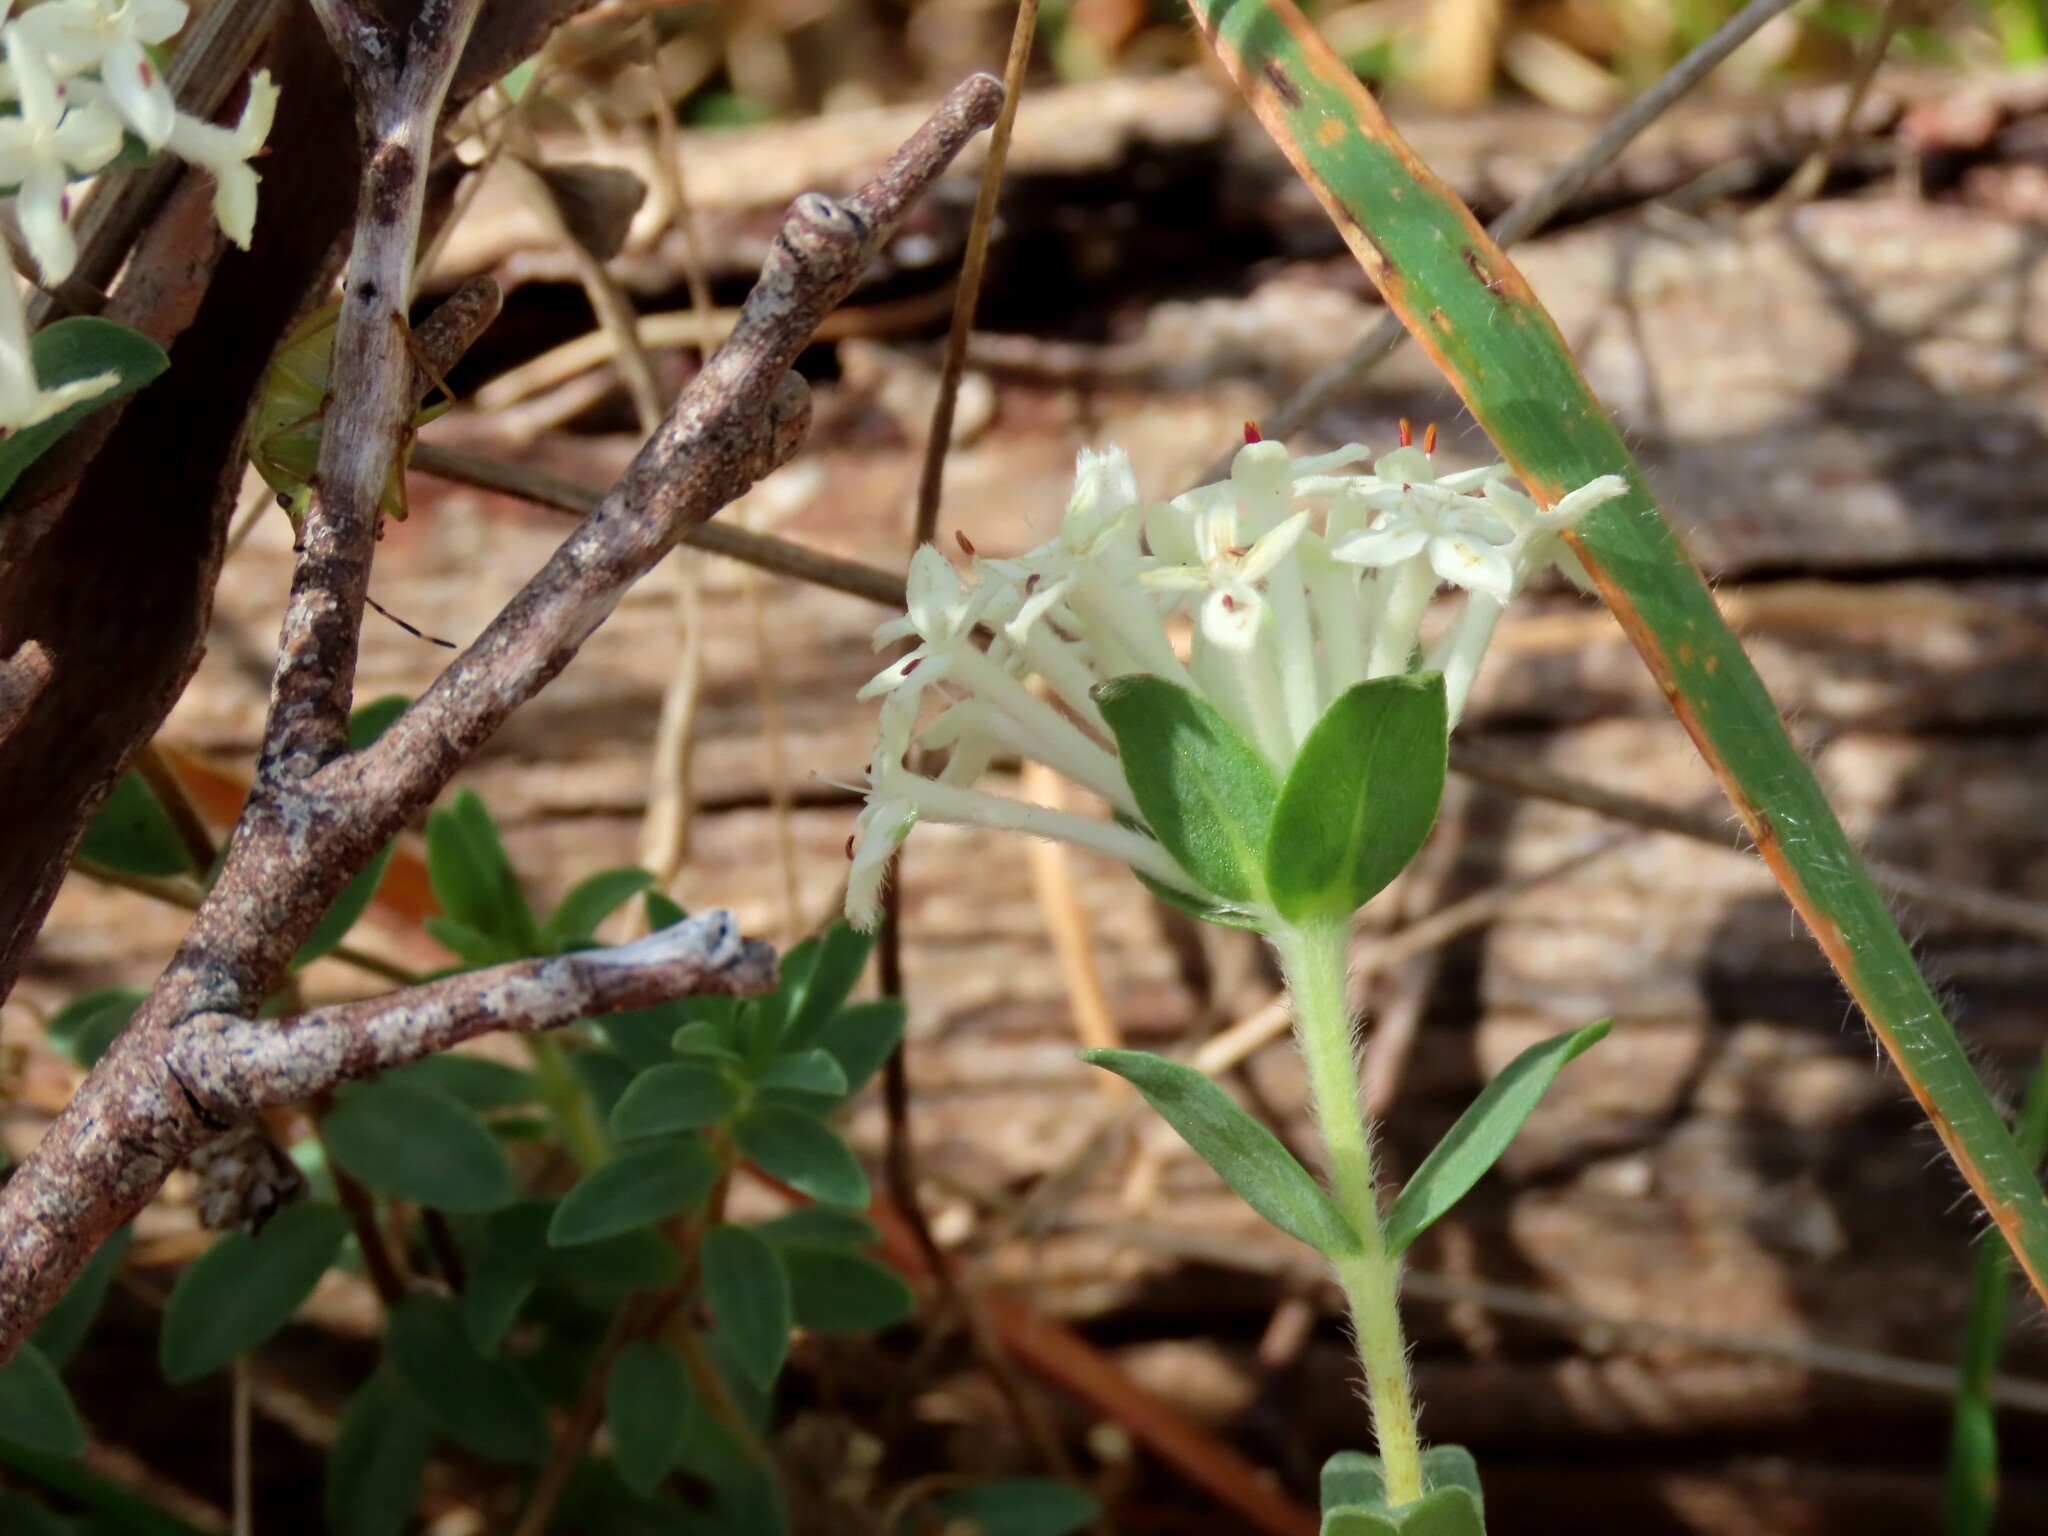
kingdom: Plantae
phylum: Tracheophyta
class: Magnoliopsida
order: Malvales
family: Thymelaeaceae
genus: Pimelea
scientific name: Pimelea humilis
